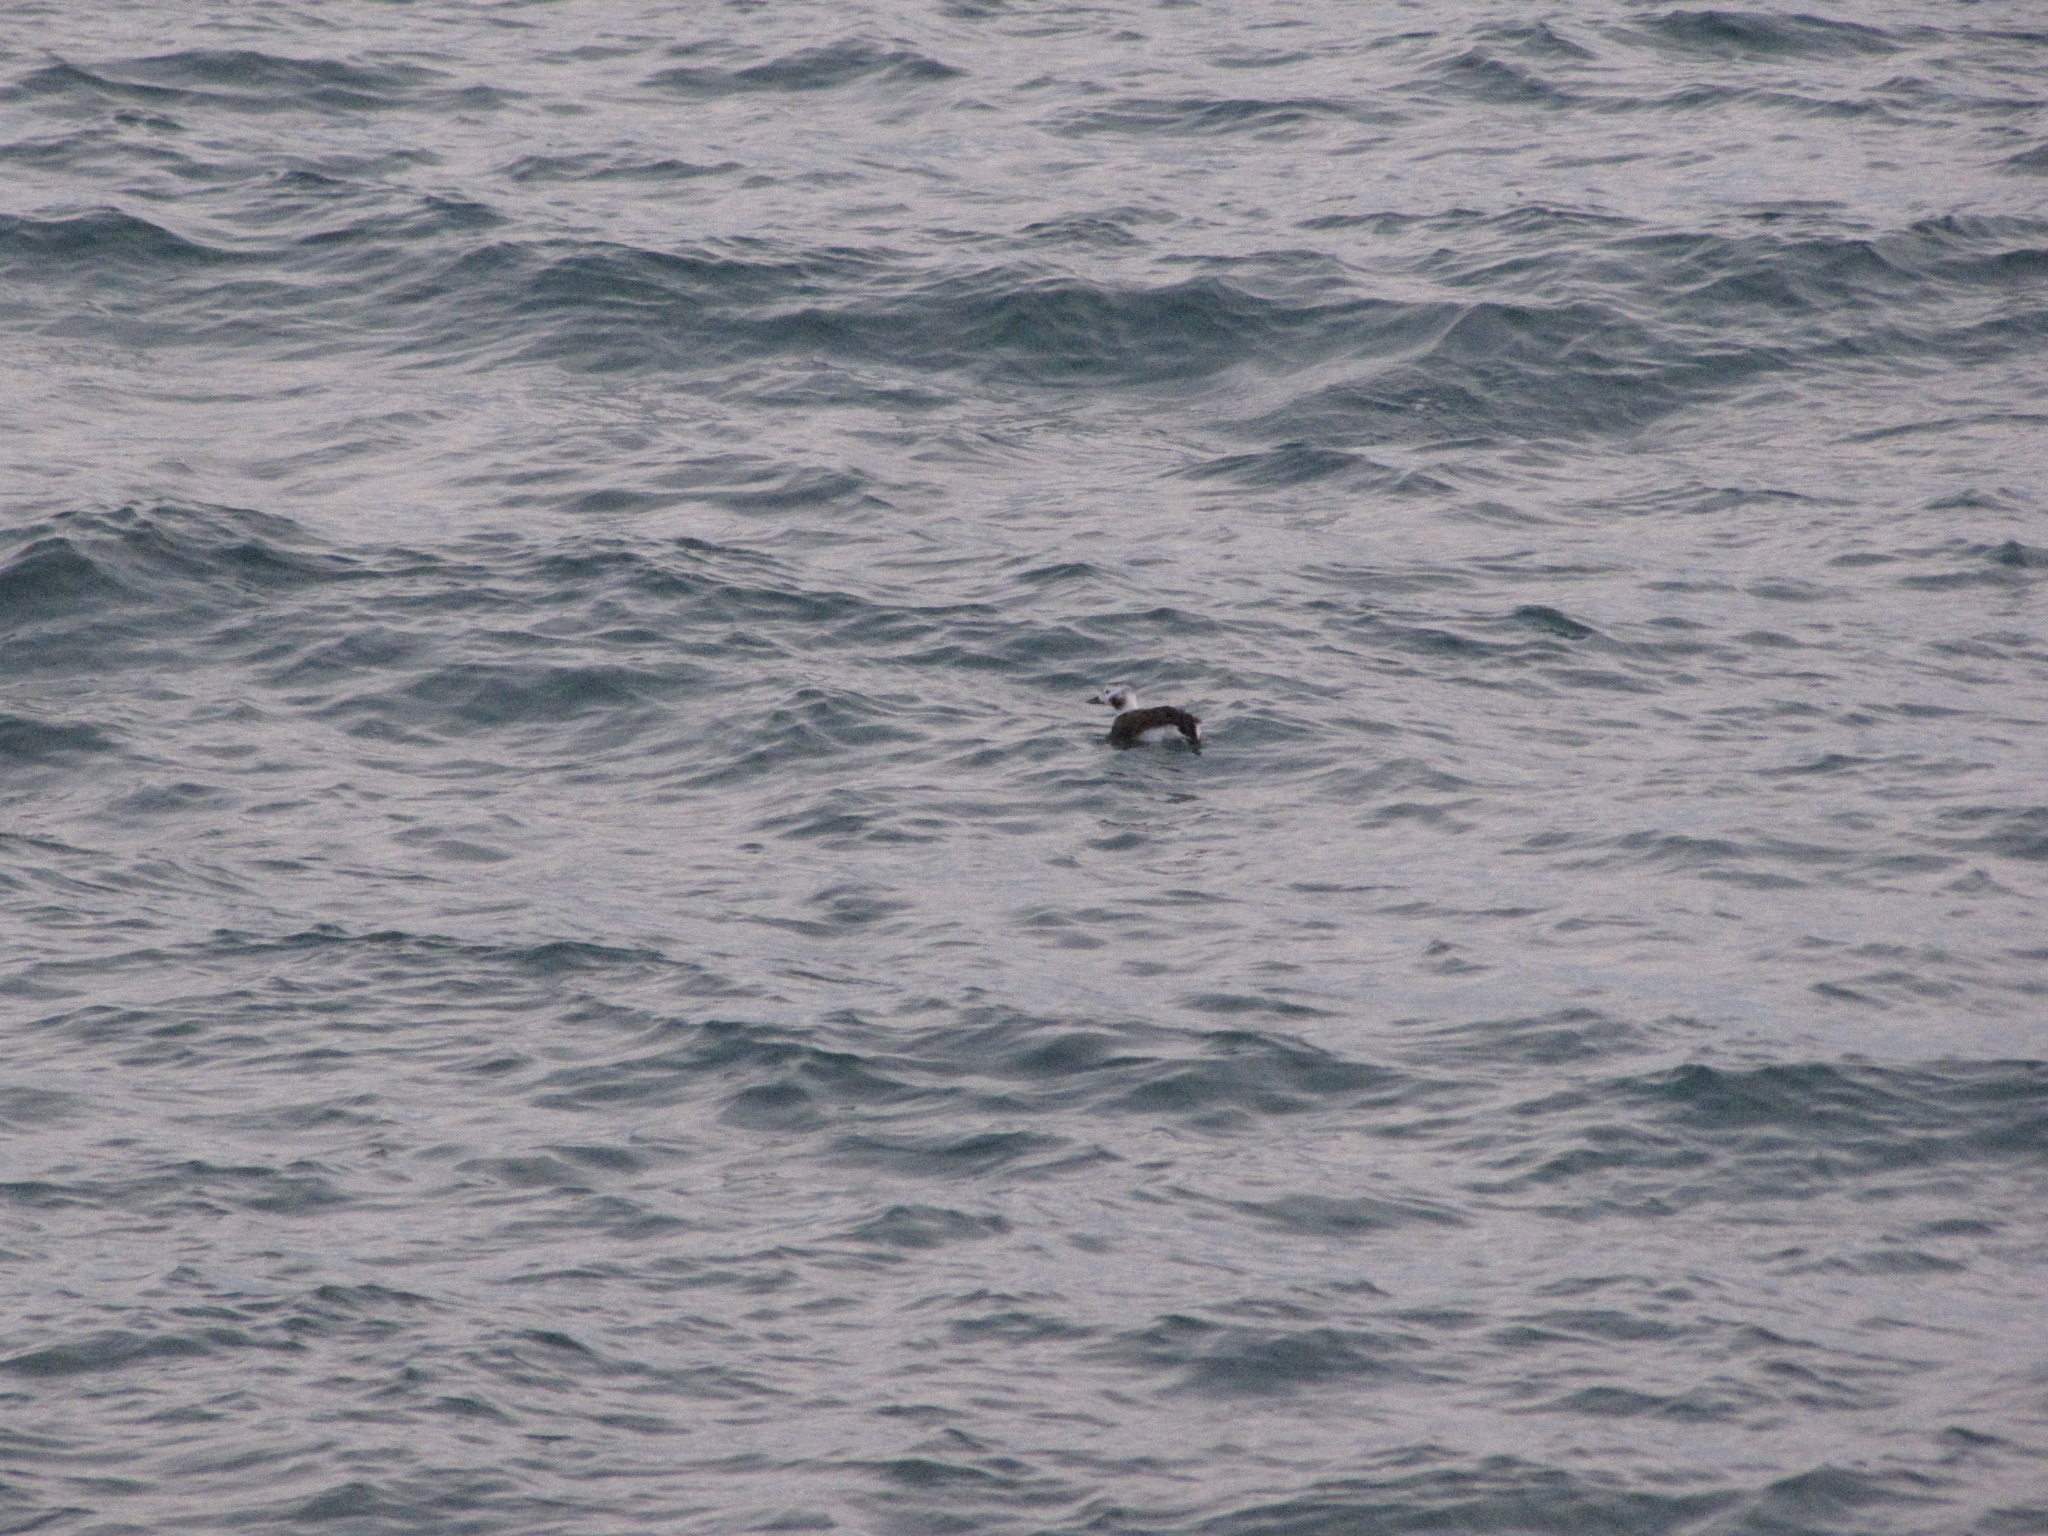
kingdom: Animalia
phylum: Chordata
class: Aves
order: Anseriformes
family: Anatidae
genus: Clangula
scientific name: Clangula hyemalis
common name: Long-tailed duck
